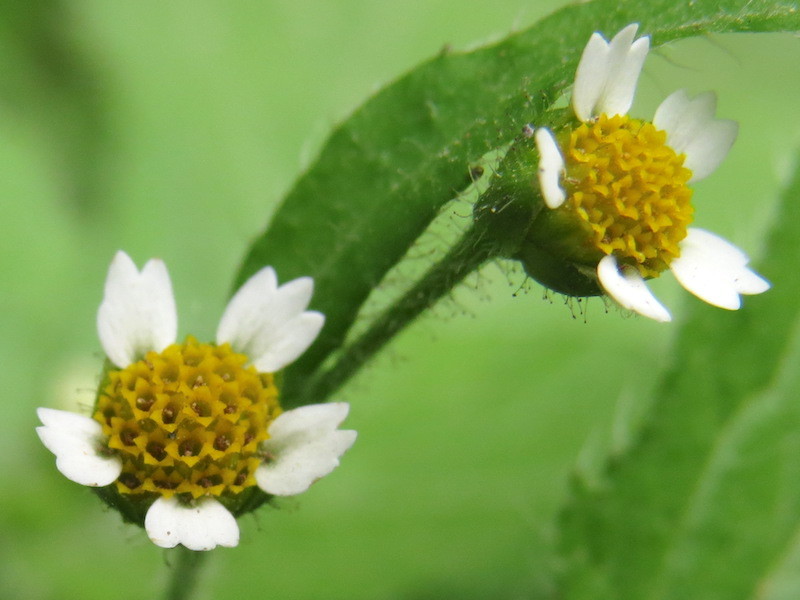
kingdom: Plantae
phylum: Tracheophyta
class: Magnoliopsida
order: Asterales
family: Asteraceae
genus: Galinsoga
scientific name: Galinsoga quadriradiata
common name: Shaggy soldier
